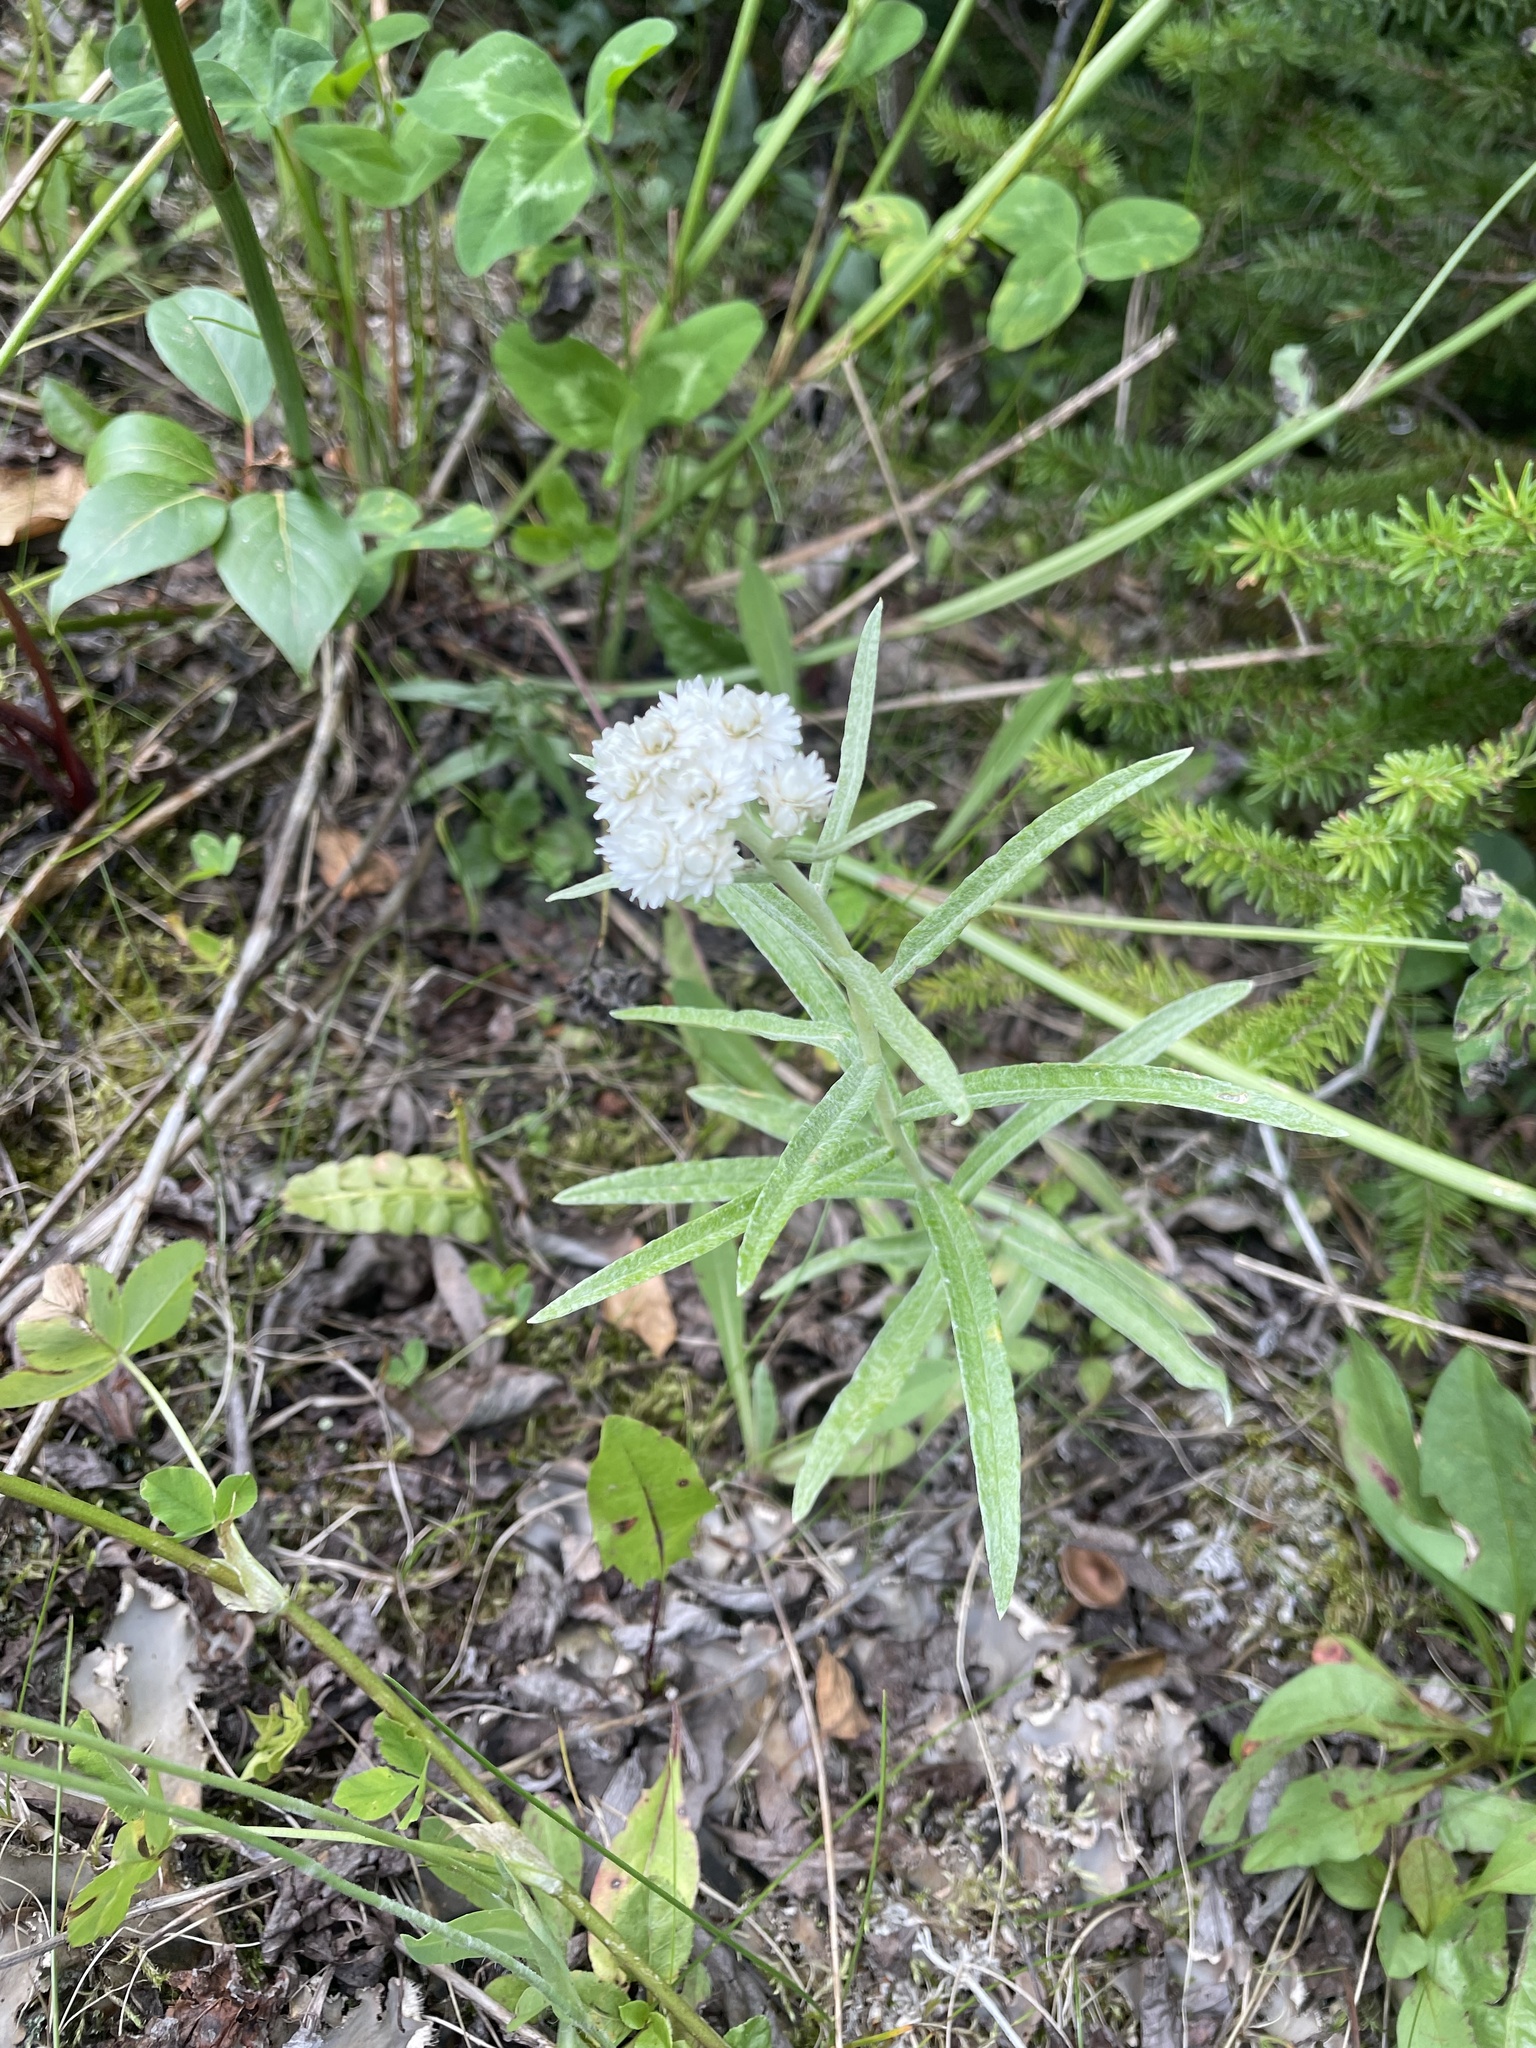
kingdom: Plantae
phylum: Tracheophyta
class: Magnoliopsida
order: Asterales
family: Asteraceae
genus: Anaphalis
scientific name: Anaphalis margaritacea
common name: Pearly everlasting
